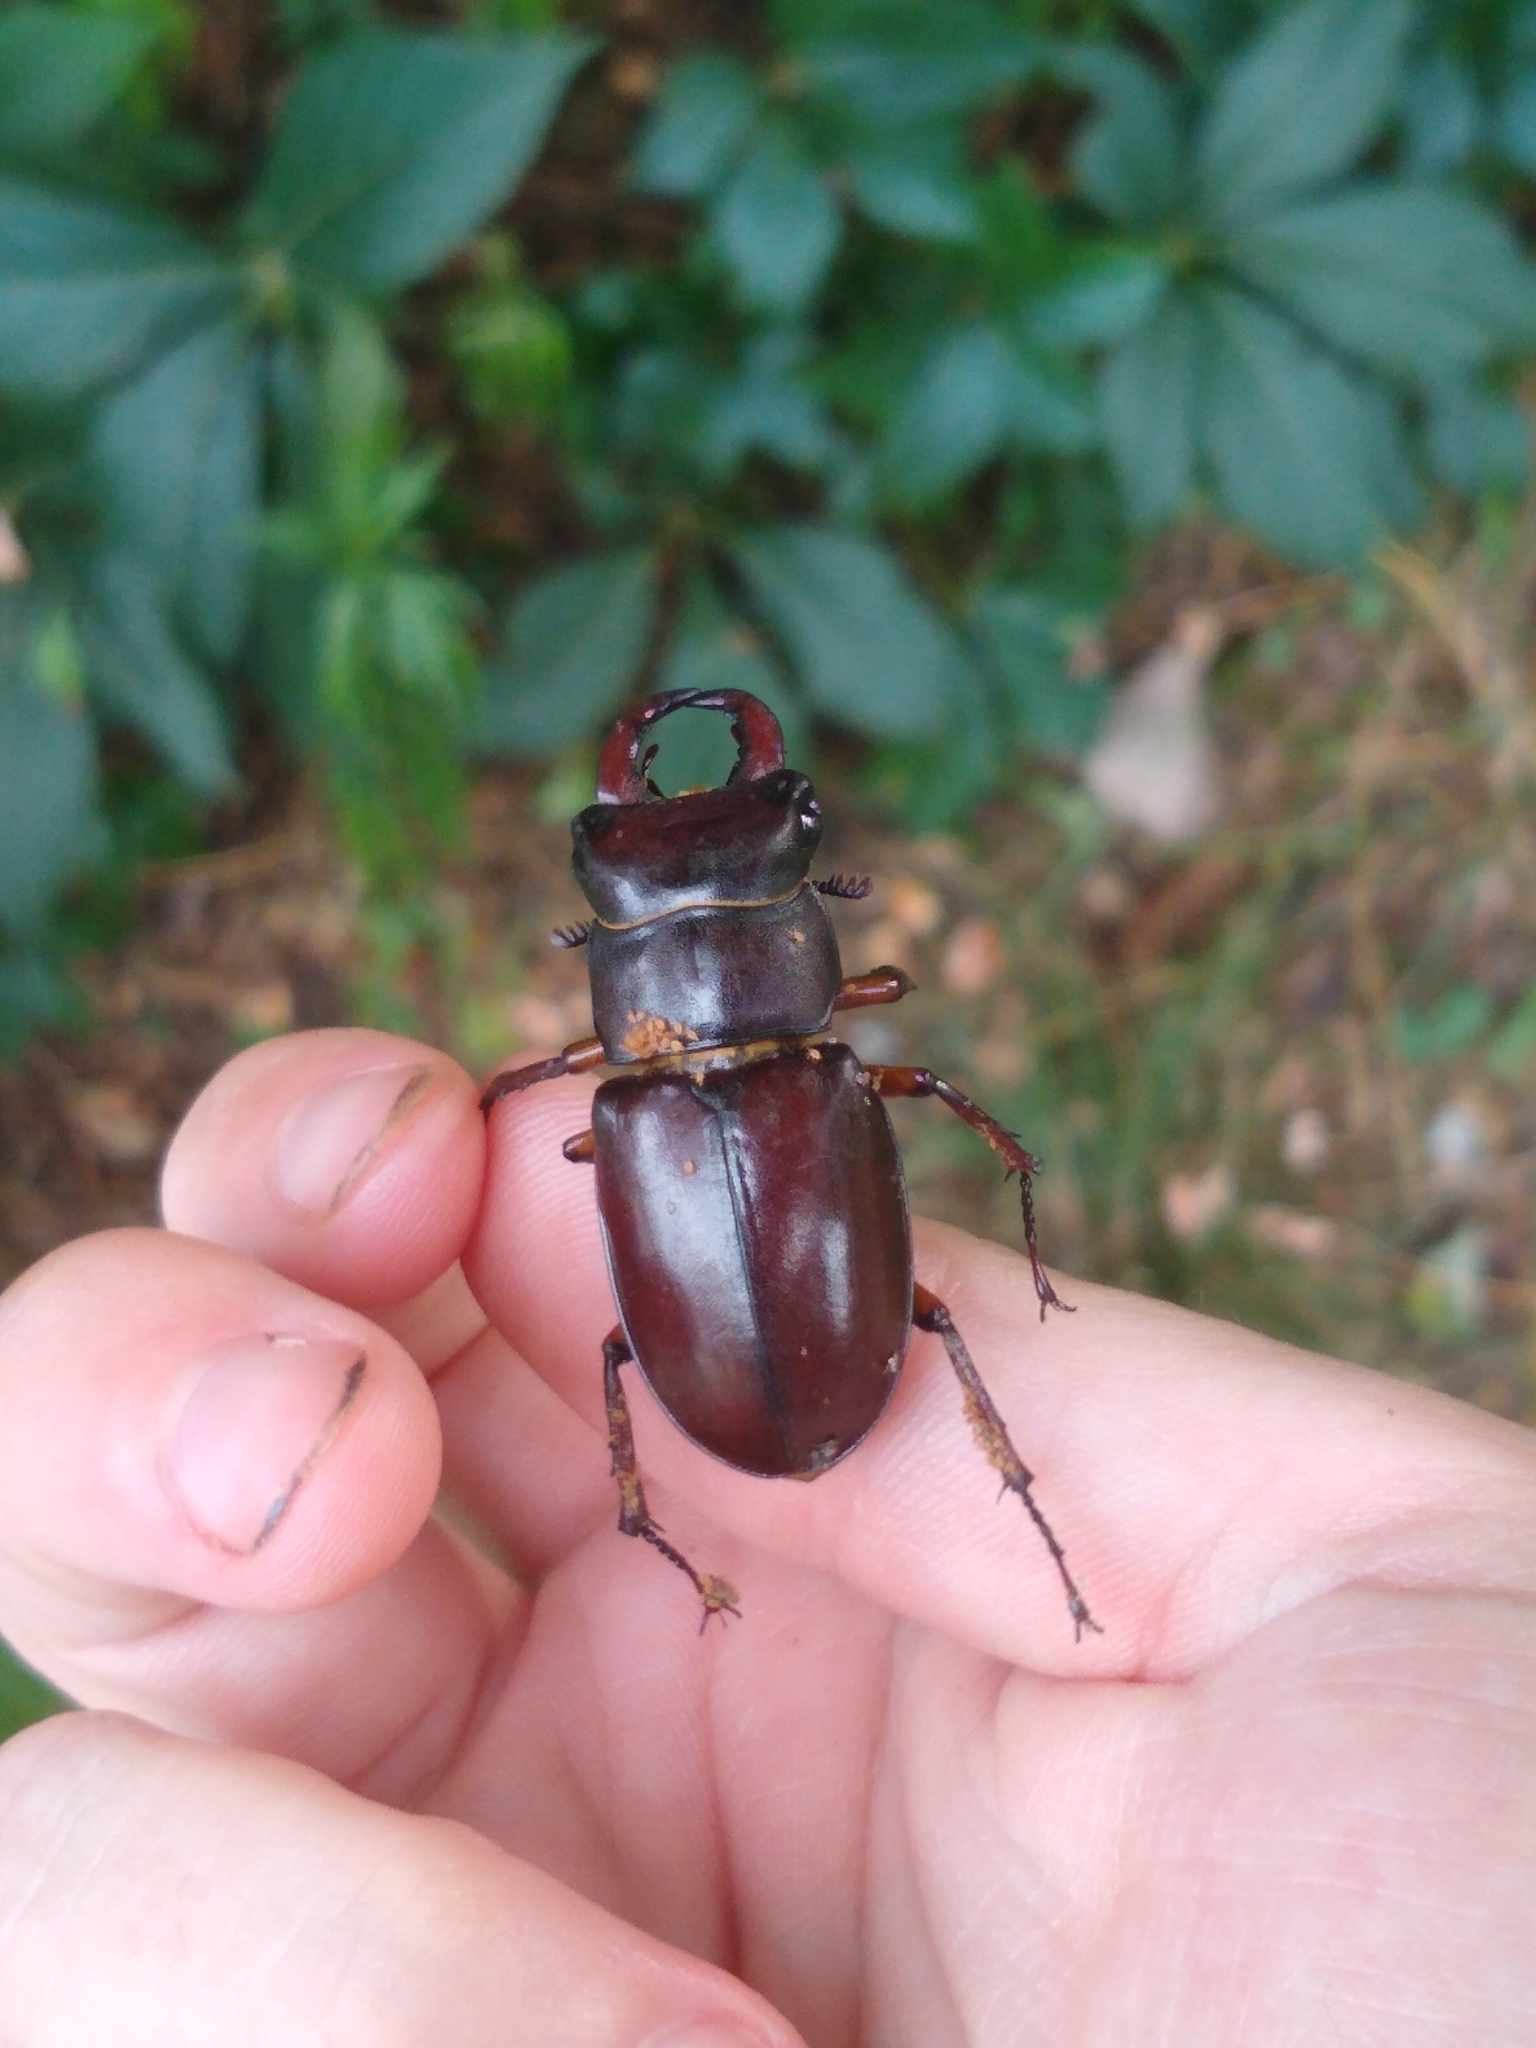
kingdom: Animalia
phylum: Arthropoda
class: Insecta
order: Coleoptera
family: Lucanidae
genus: Lucanus
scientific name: Lucanus capreolus
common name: Stag beetle
